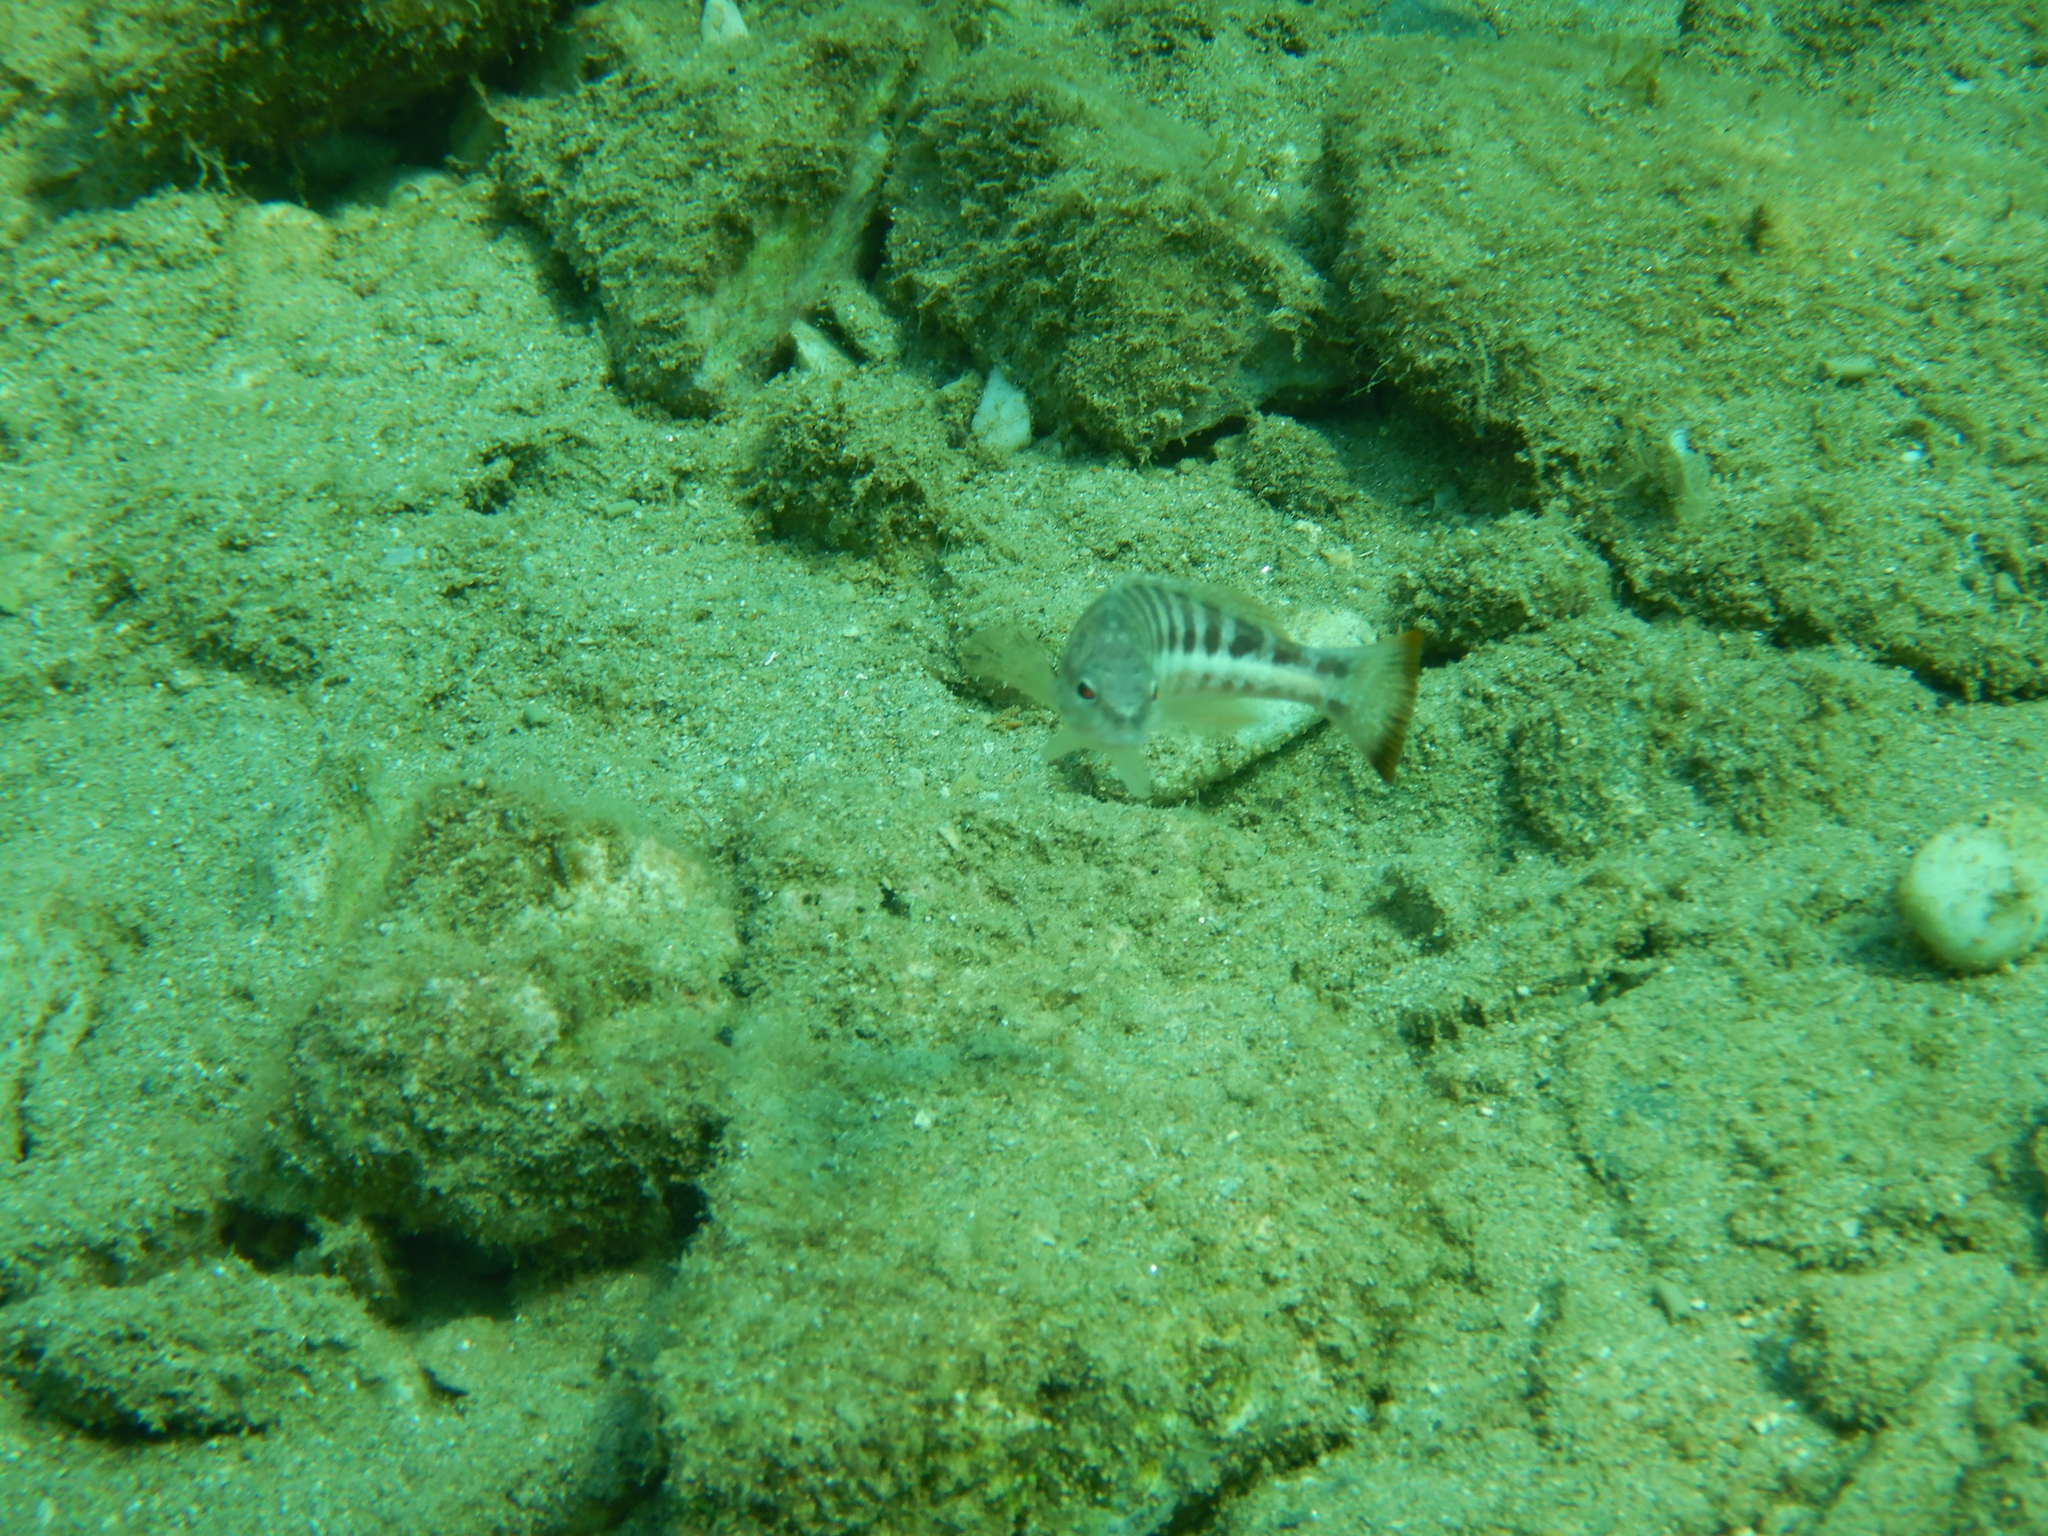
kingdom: Animalia
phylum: Chordata
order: Perciformes
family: Serranidae
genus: Serranus
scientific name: Serranus cabrilla
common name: Comber
